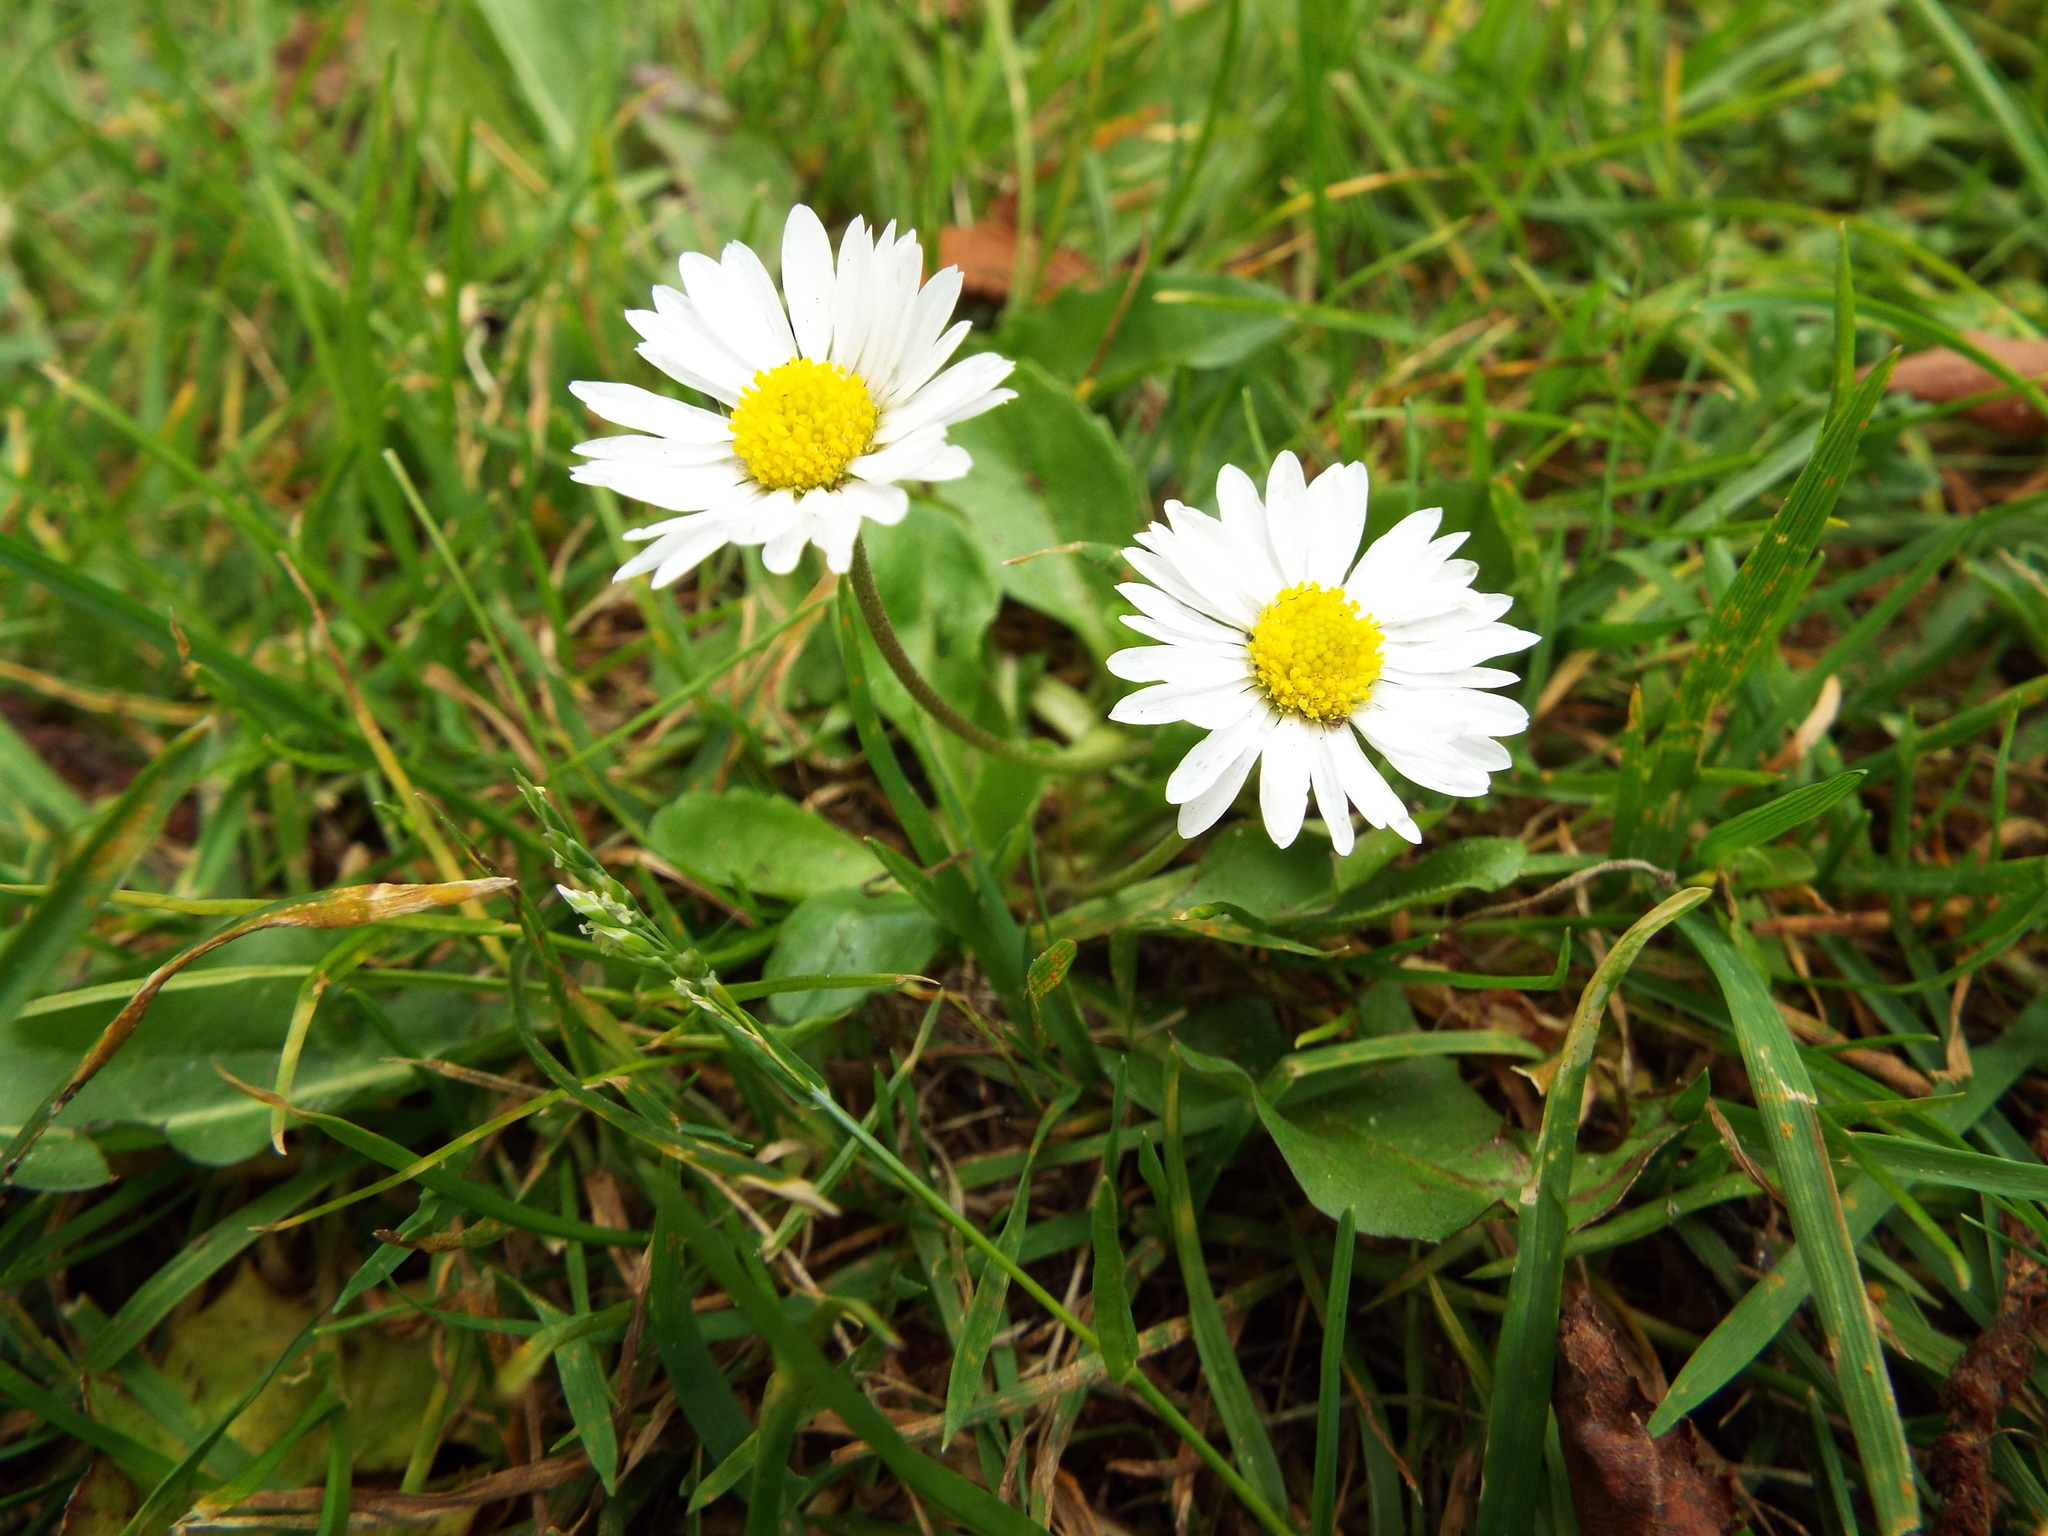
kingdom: Plantae
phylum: Tracheophyta
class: Magnoliopsida
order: Asterales
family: Asteraceae
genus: Bellis
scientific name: Bellis perennis
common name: Lawndaisy
